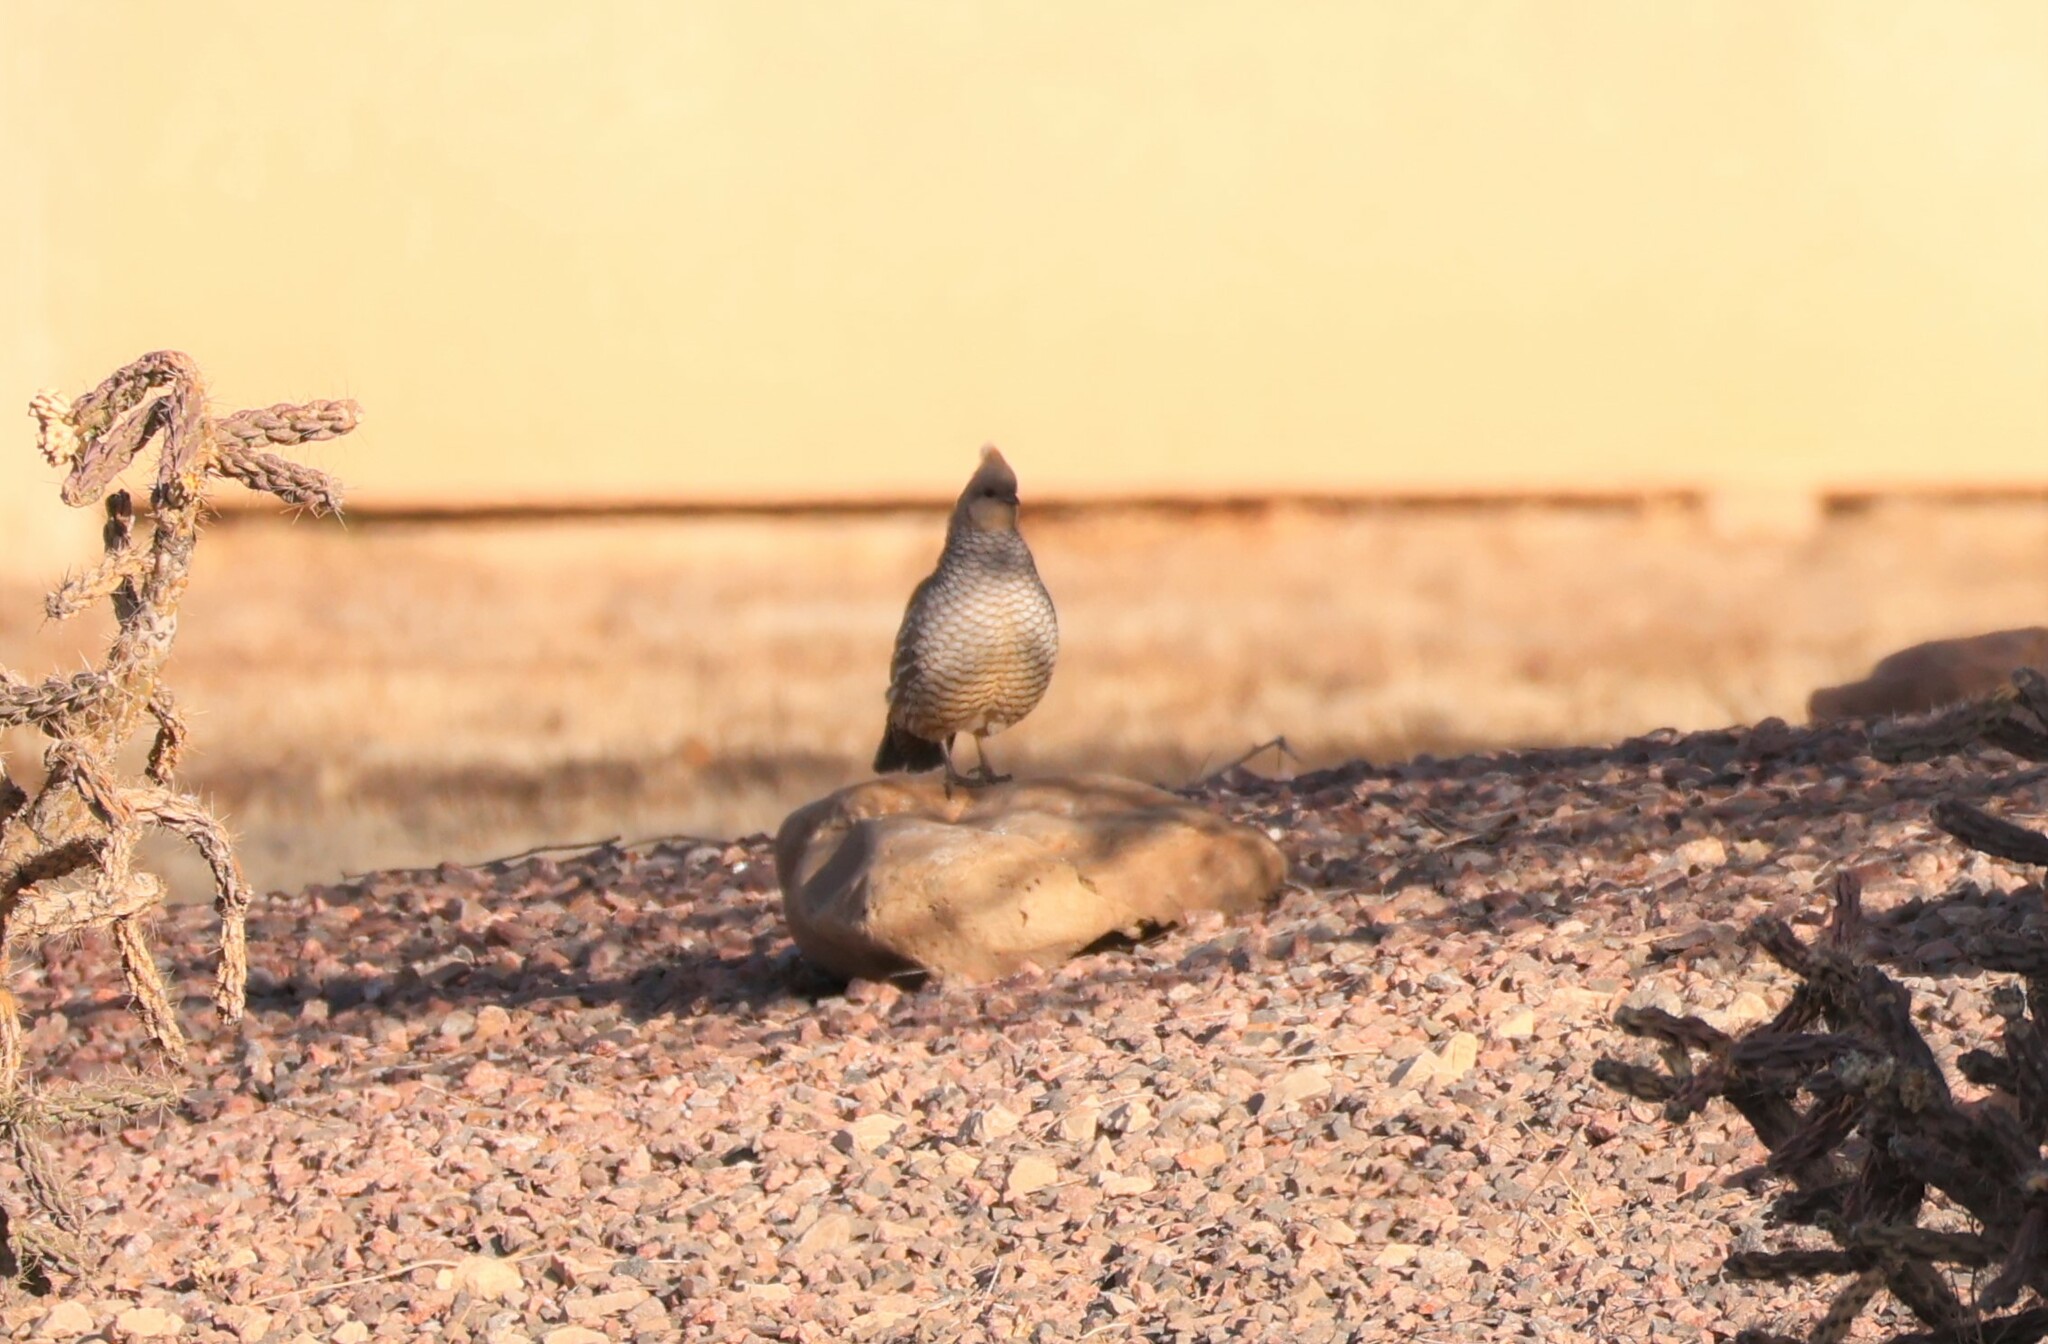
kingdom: Animalia
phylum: Chordata
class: Aves
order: Galliformes
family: Odontophoridae
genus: Callipepla
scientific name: Callipepla squamata
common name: Scaled quail
